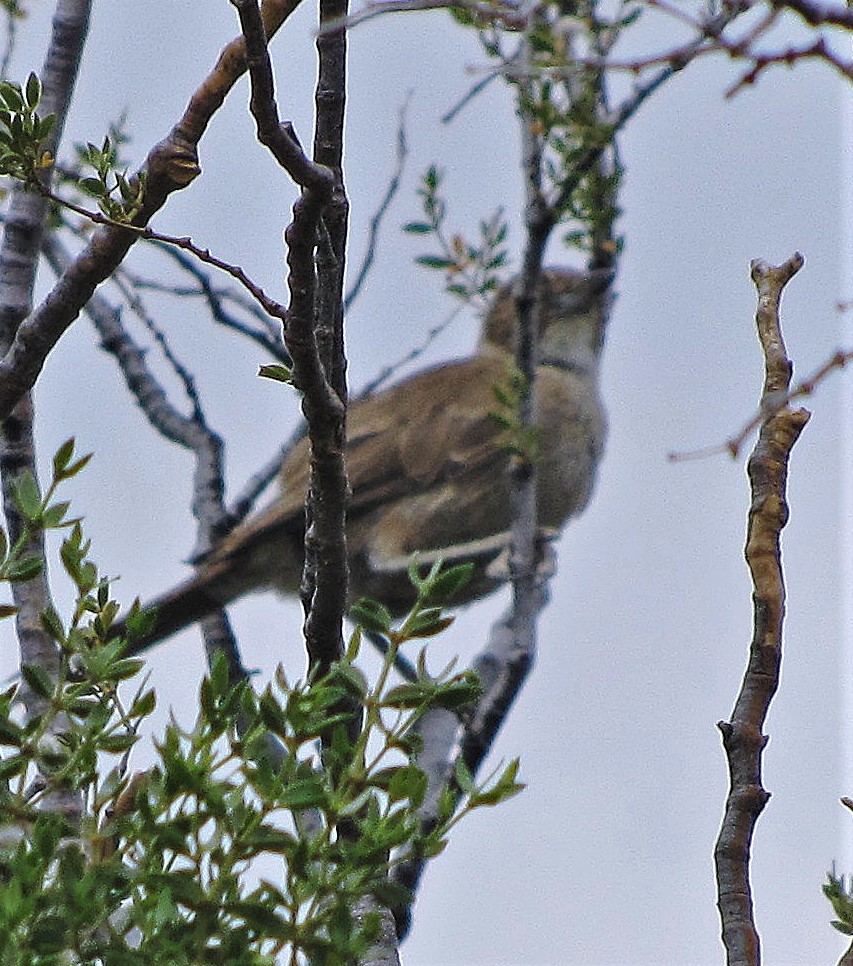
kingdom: Animalia
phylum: Chordata
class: Aves
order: Passeriformes
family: Furnariidae
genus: Pseudoseisura
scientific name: Pseudoseisura gutturalis
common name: White-throated cacholote
